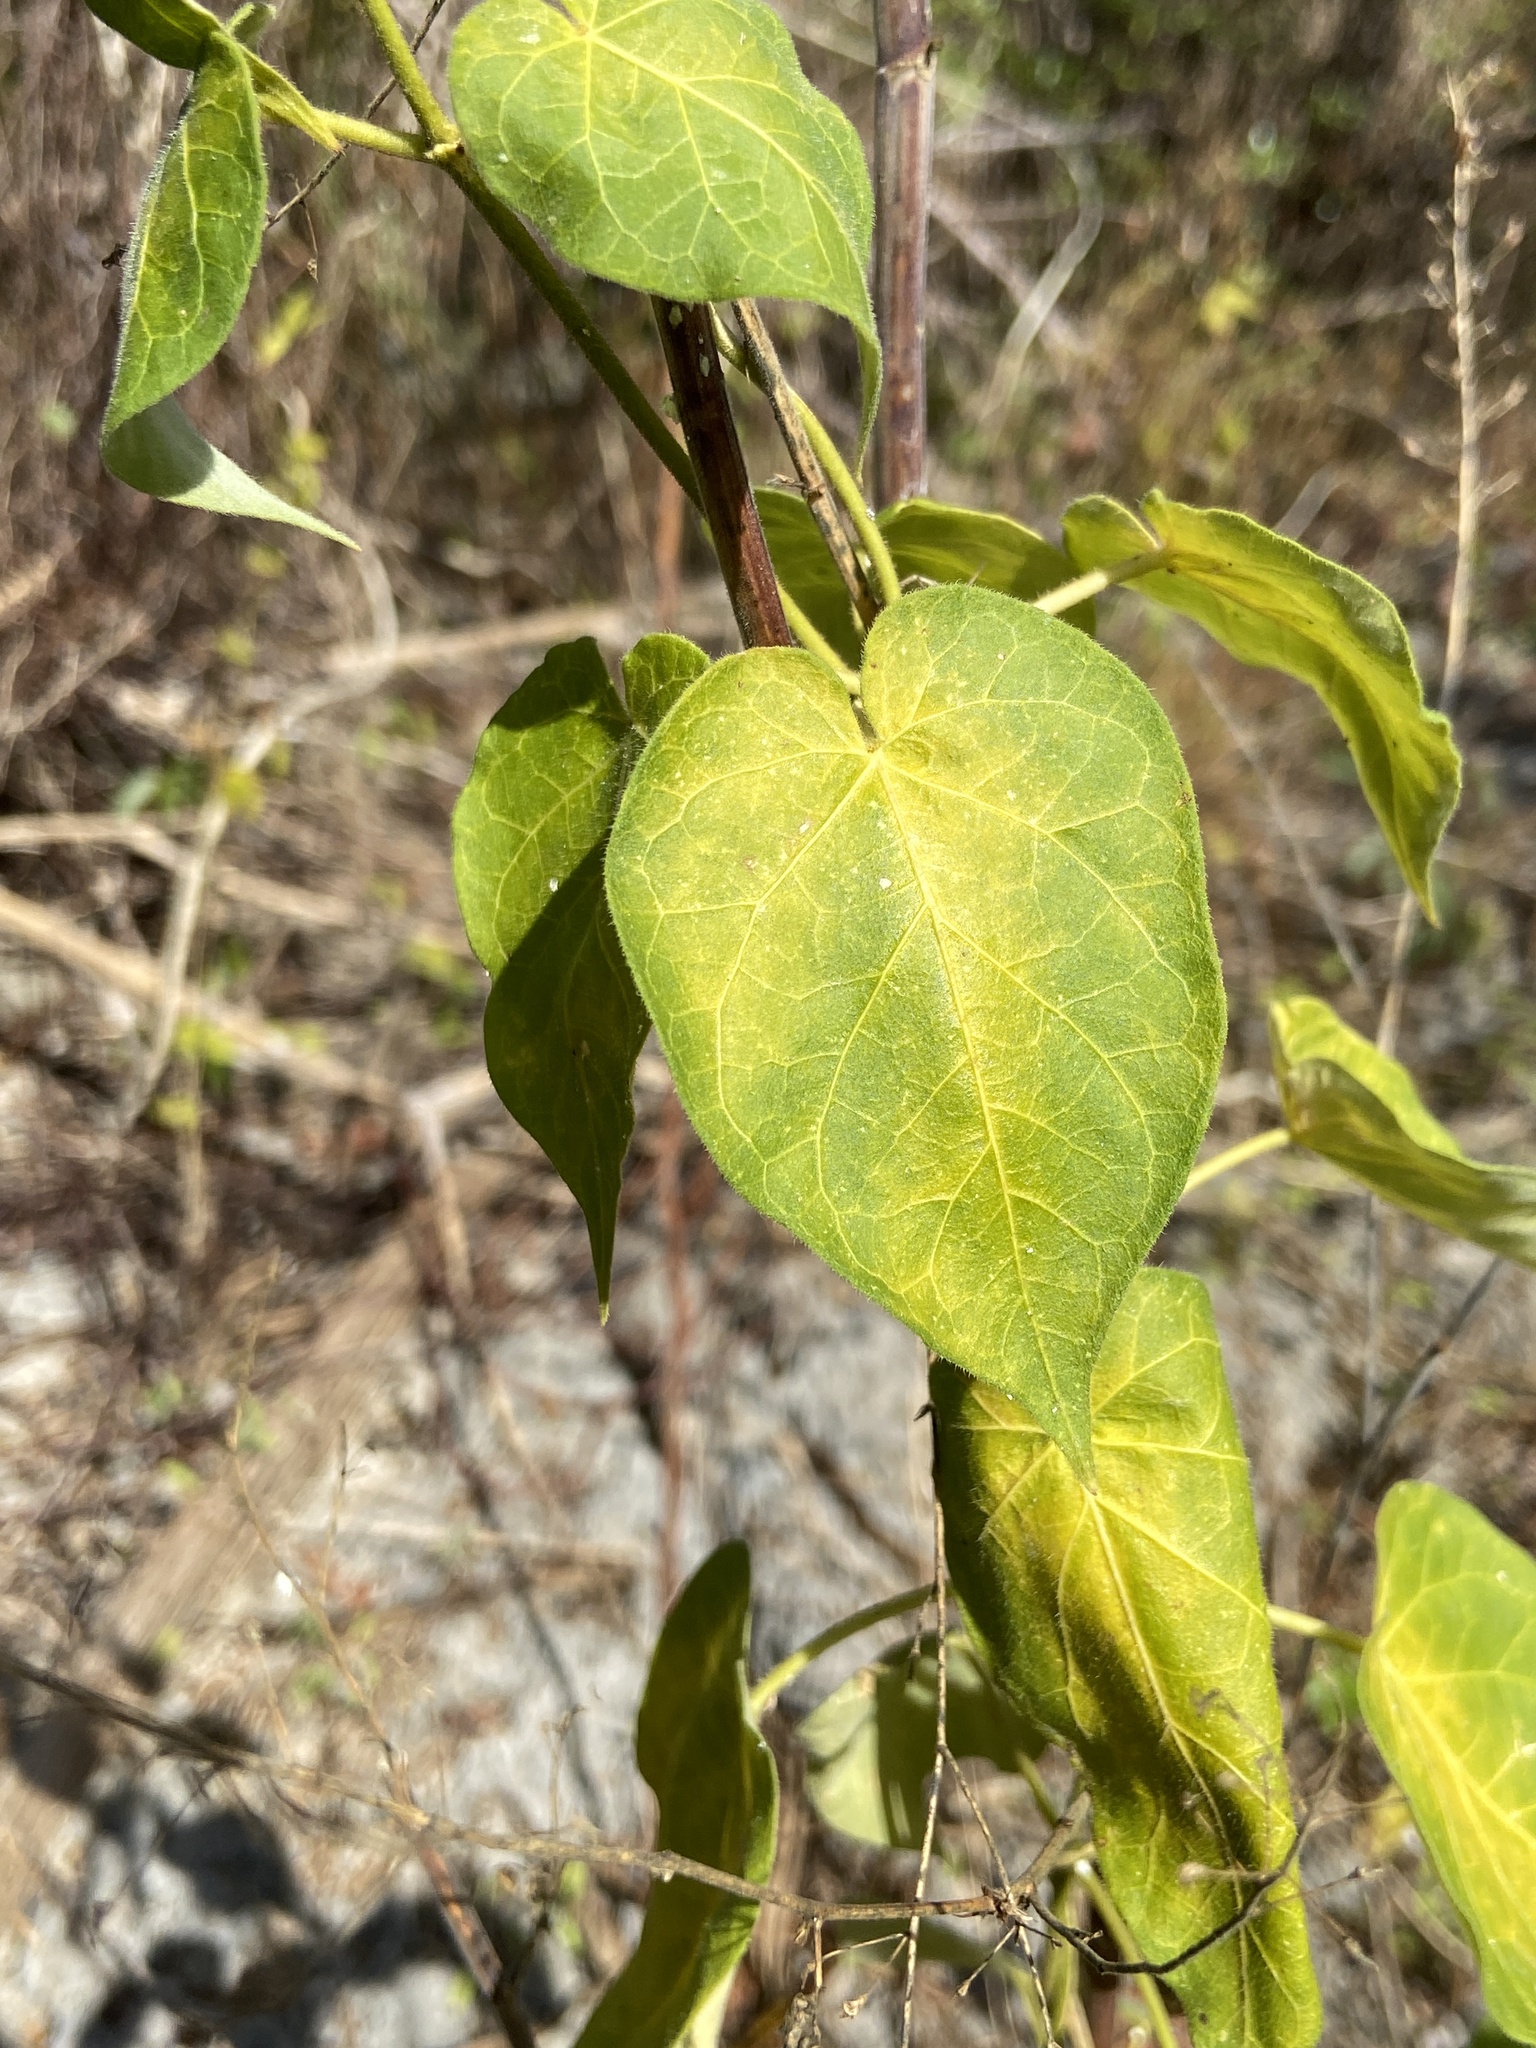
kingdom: Plantae
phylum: Tracheophyta
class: Magnoliopsida
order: Gentianales
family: Apocynaceae
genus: Ibatia
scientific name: Ibatia maritima
